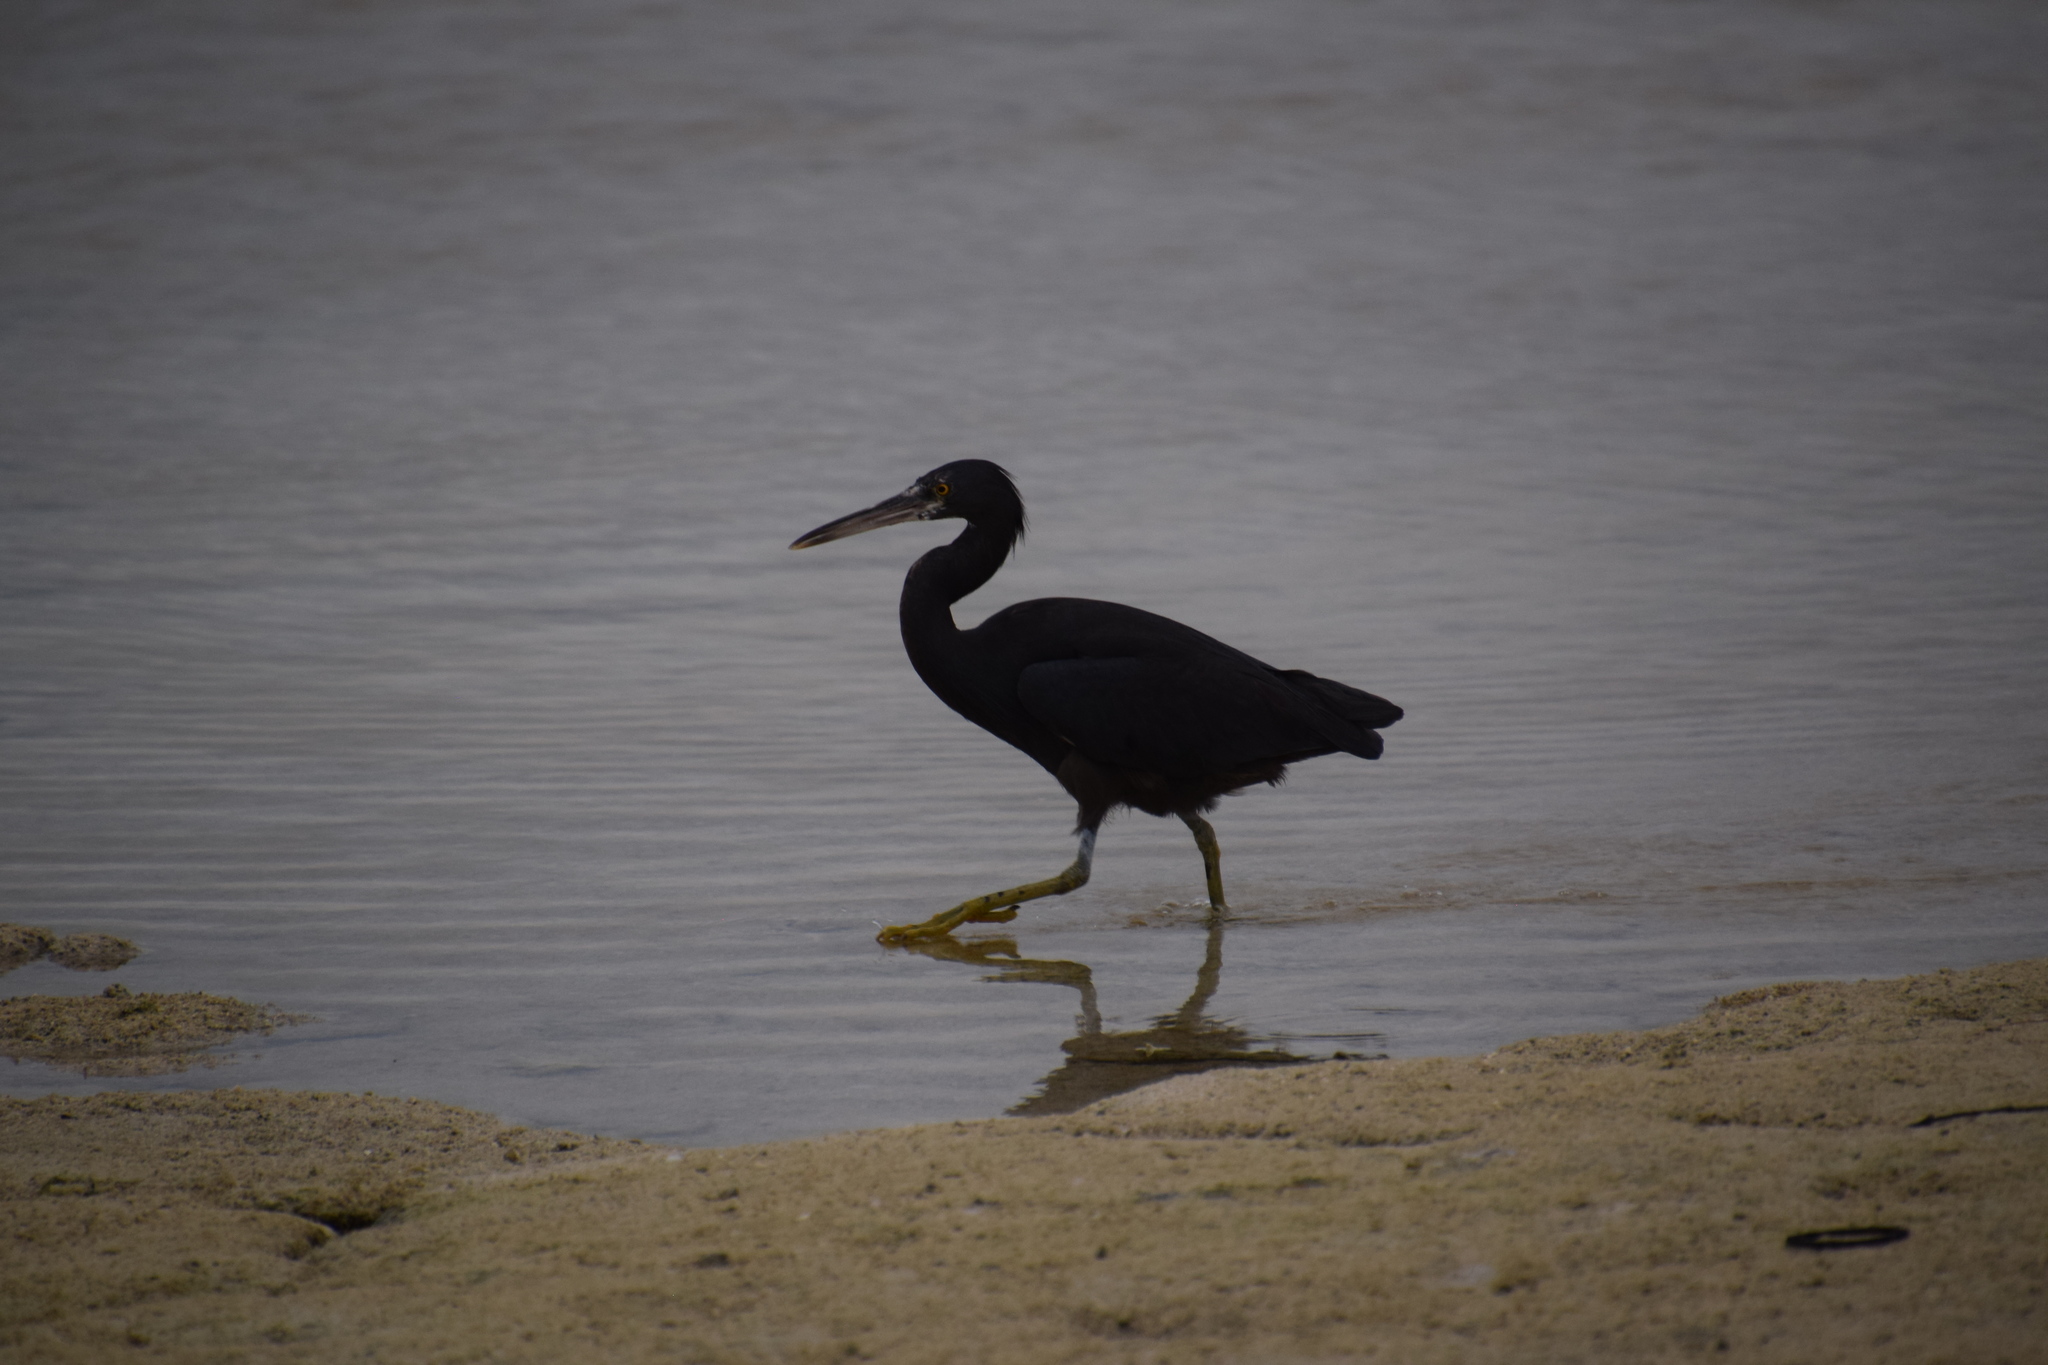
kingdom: Animalia
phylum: Chordata
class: Aves
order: Pelecaniformes
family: Ardeidae
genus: Egretta
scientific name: Egretta sacra
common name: Pacific reef heron
